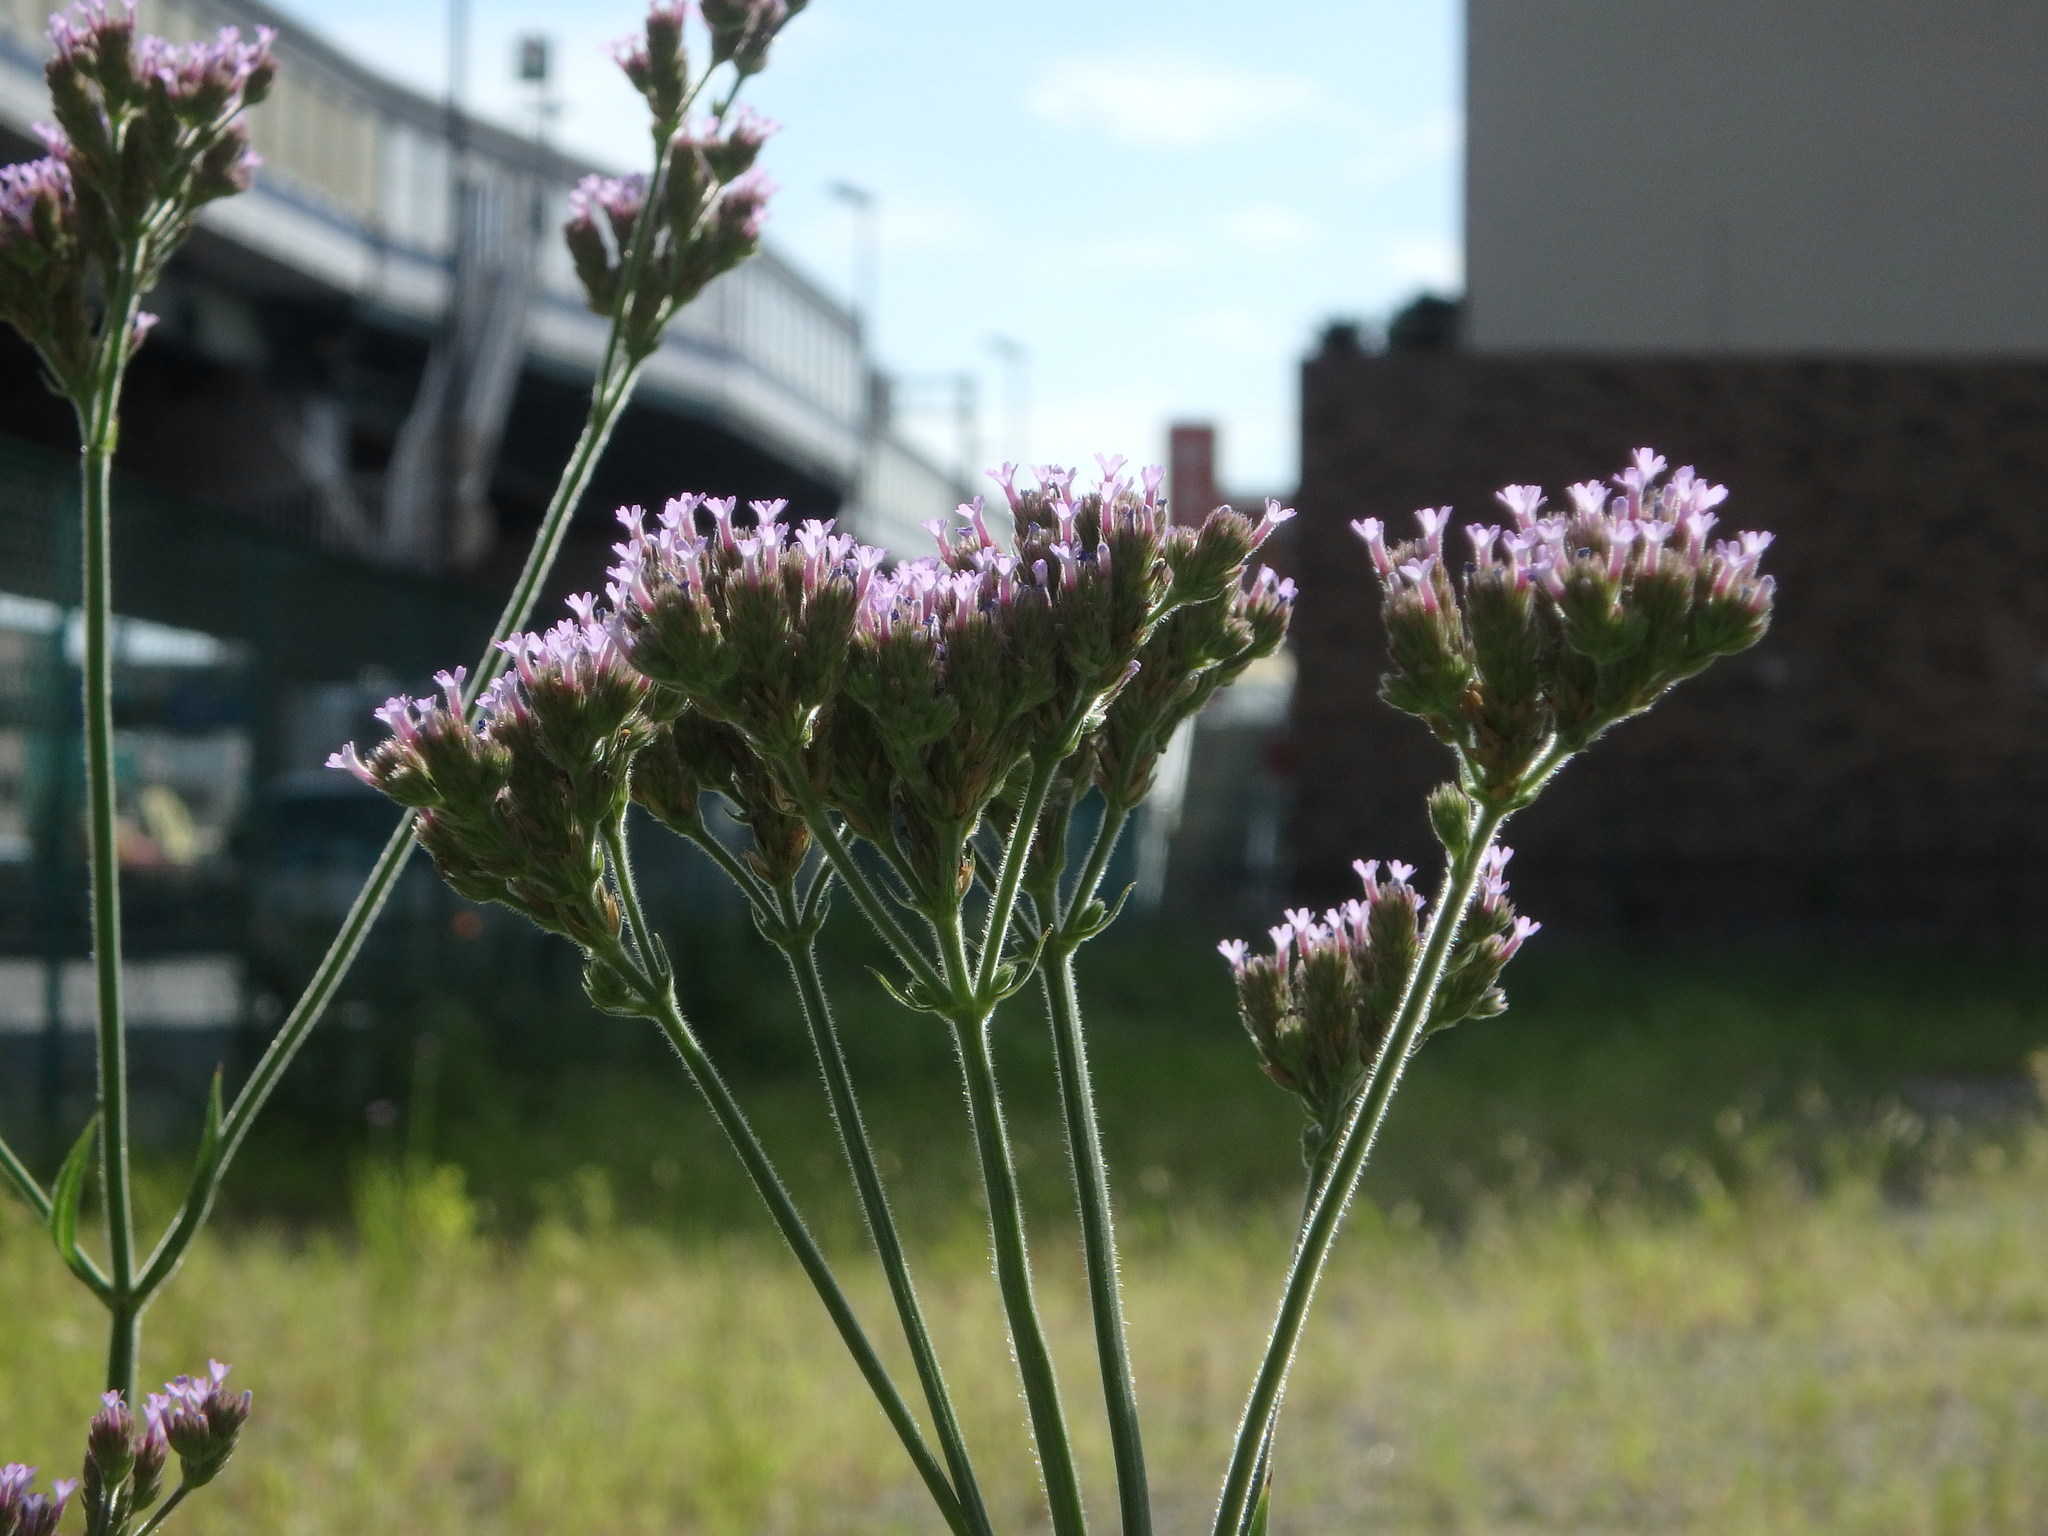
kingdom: Plantae
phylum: Tracheophyta
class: Magnoliopsida
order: Lamiales
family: Verbenaceae
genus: Verbena
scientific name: Verbena bonariensis
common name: Purpletop vervain
